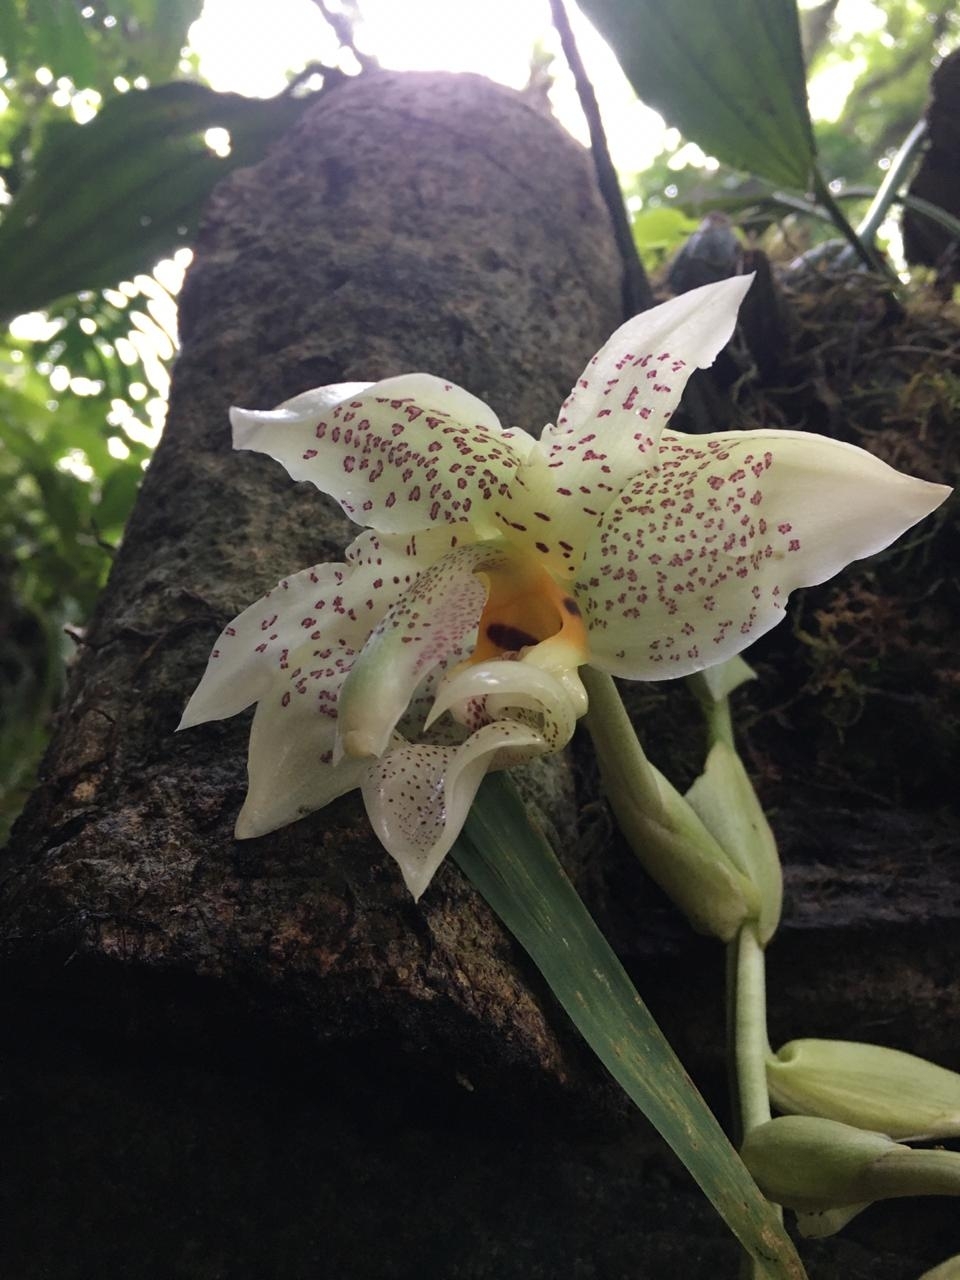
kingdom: Plantae
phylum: Tracheophyta
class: Liliopsida
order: Asparagales
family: Orchidaceae
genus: Stanhopea
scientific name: Stanhopea ruckeri
